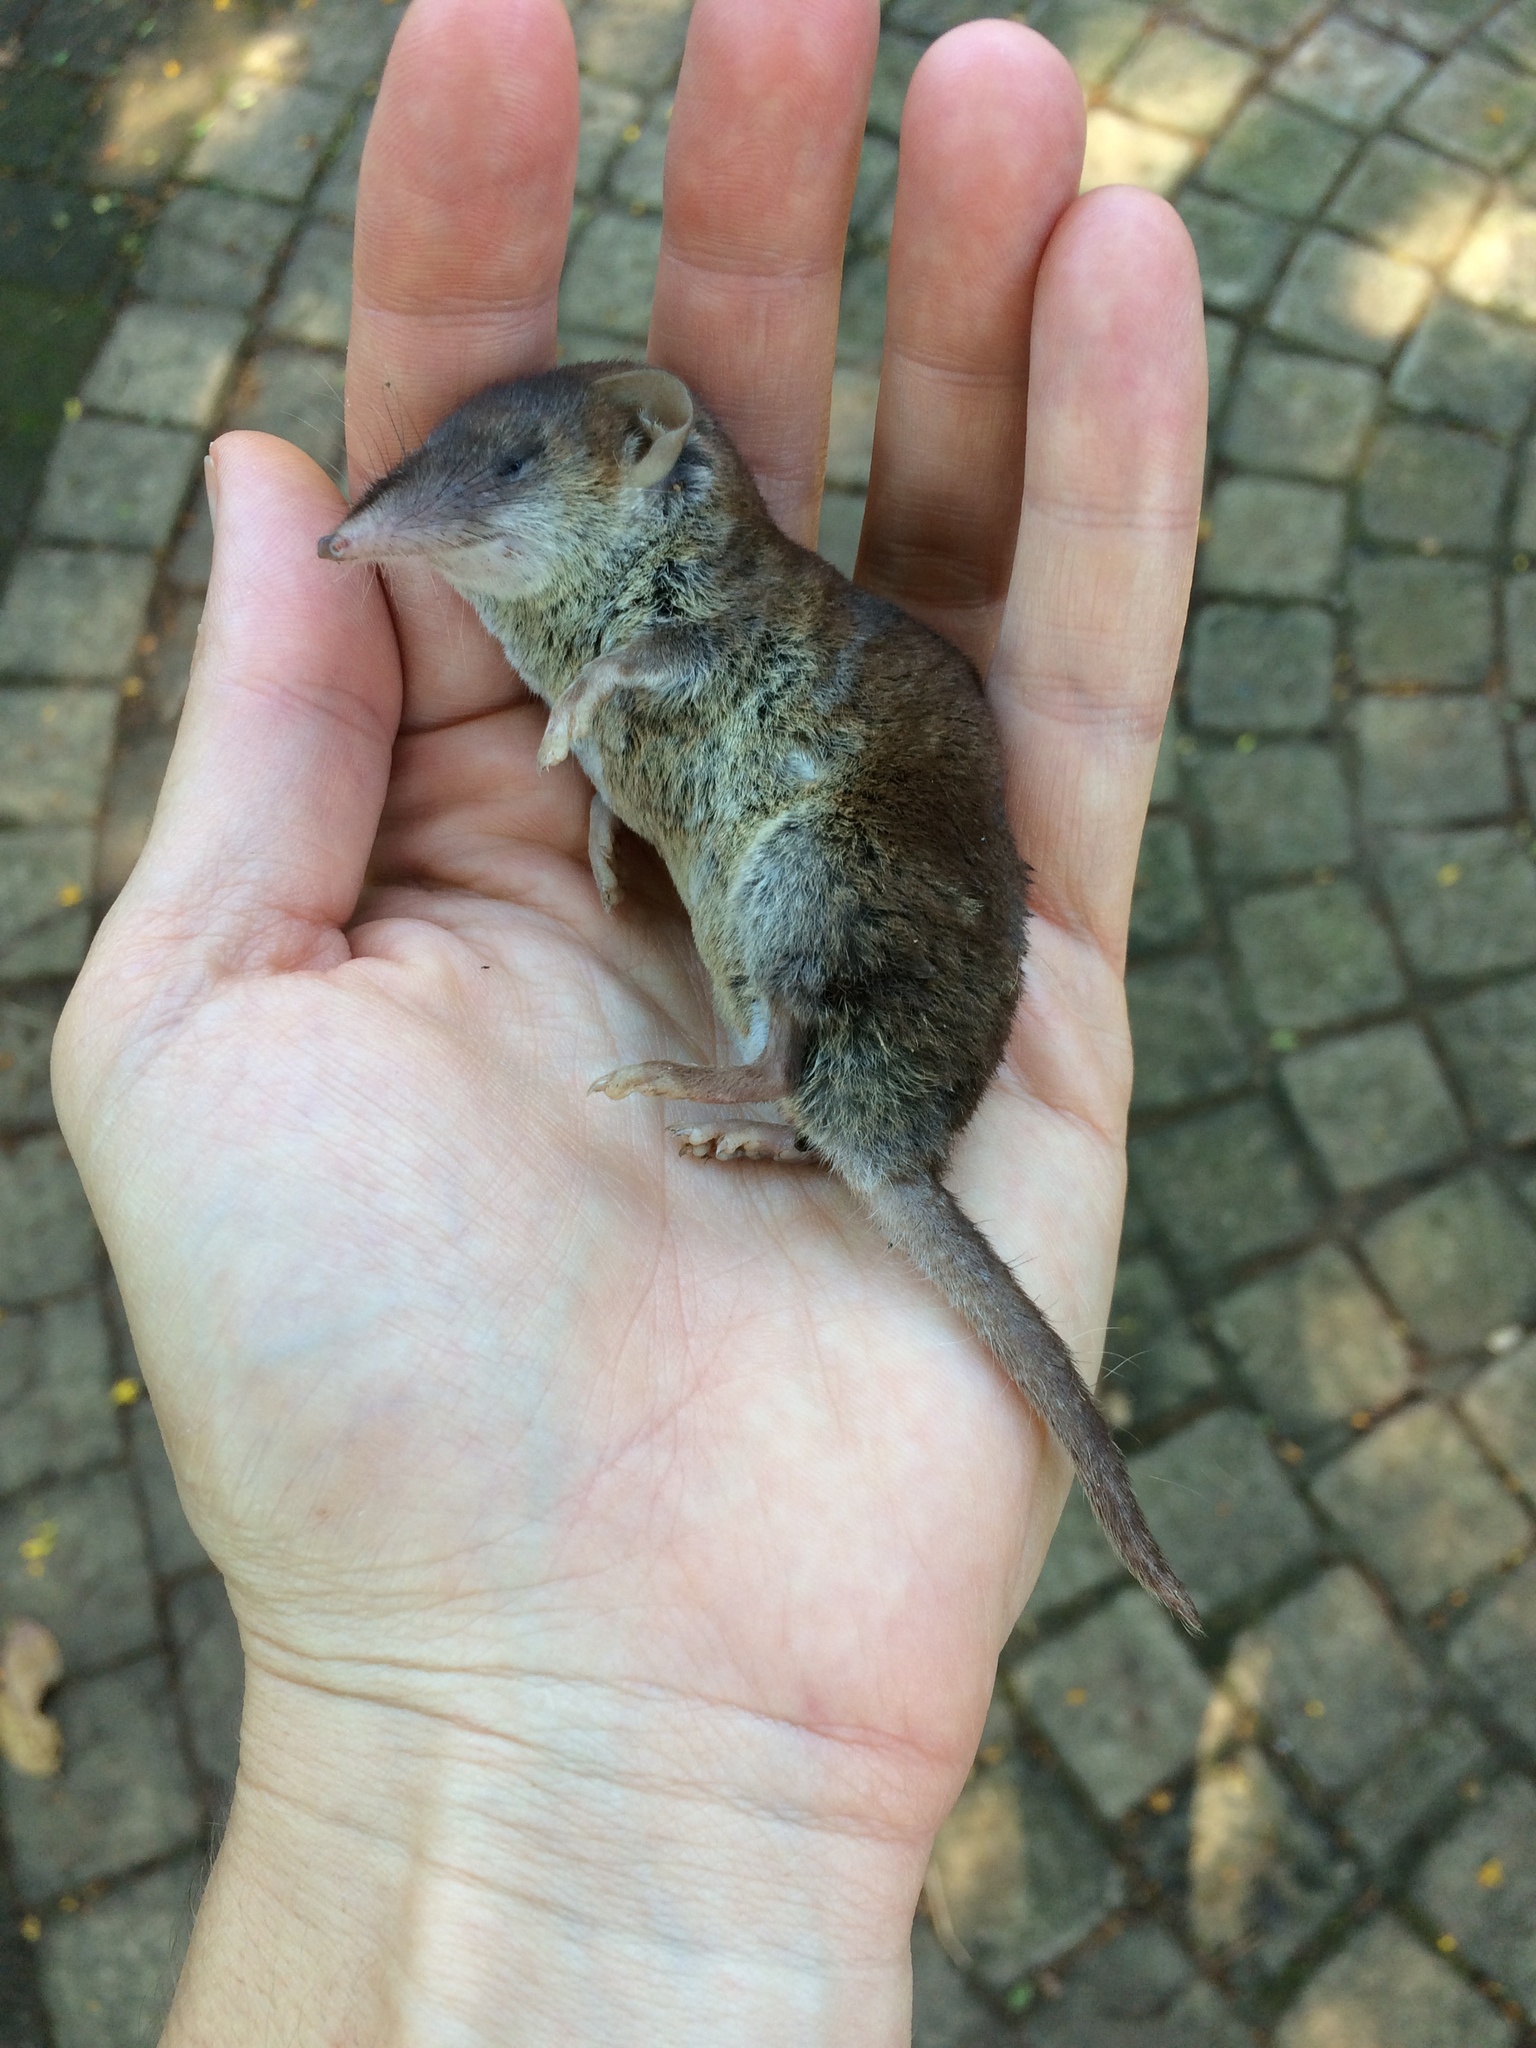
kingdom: Animalia
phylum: Chordata
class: Mammalia
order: Soricomorpha
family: Soricidae
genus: Myosorex
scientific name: Myosorex varius
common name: Forest shrew
